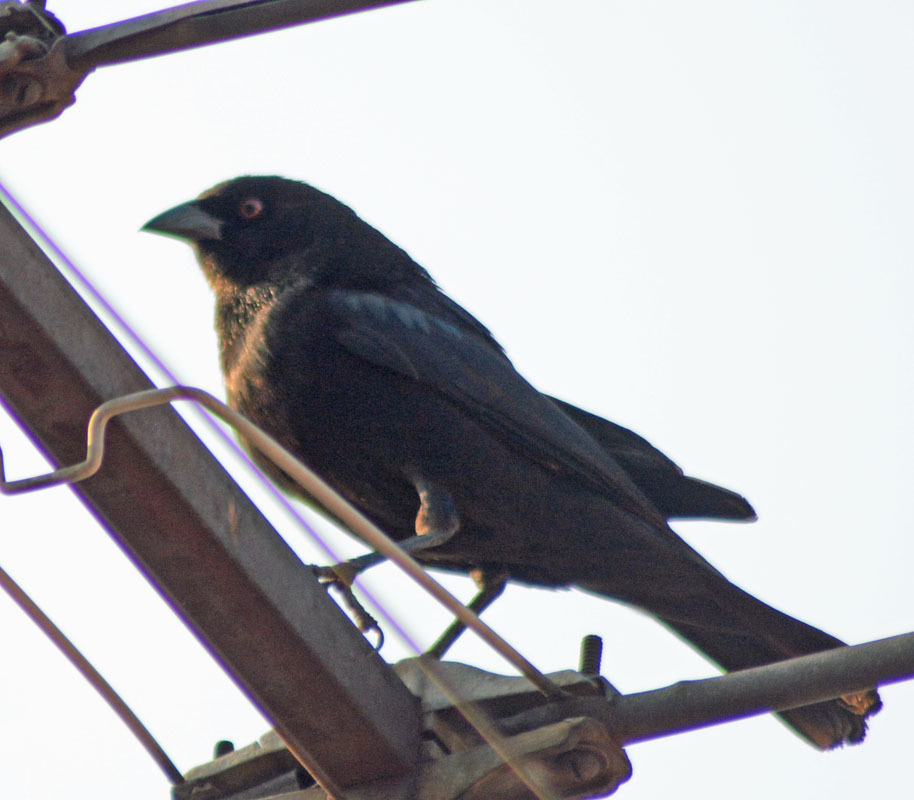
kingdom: Animalia
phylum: Chordata
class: Aves
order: Passeriformes
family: Icteridae
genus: Molothrus
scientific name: Molothrus aeneus
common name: Bronzed cowbird
